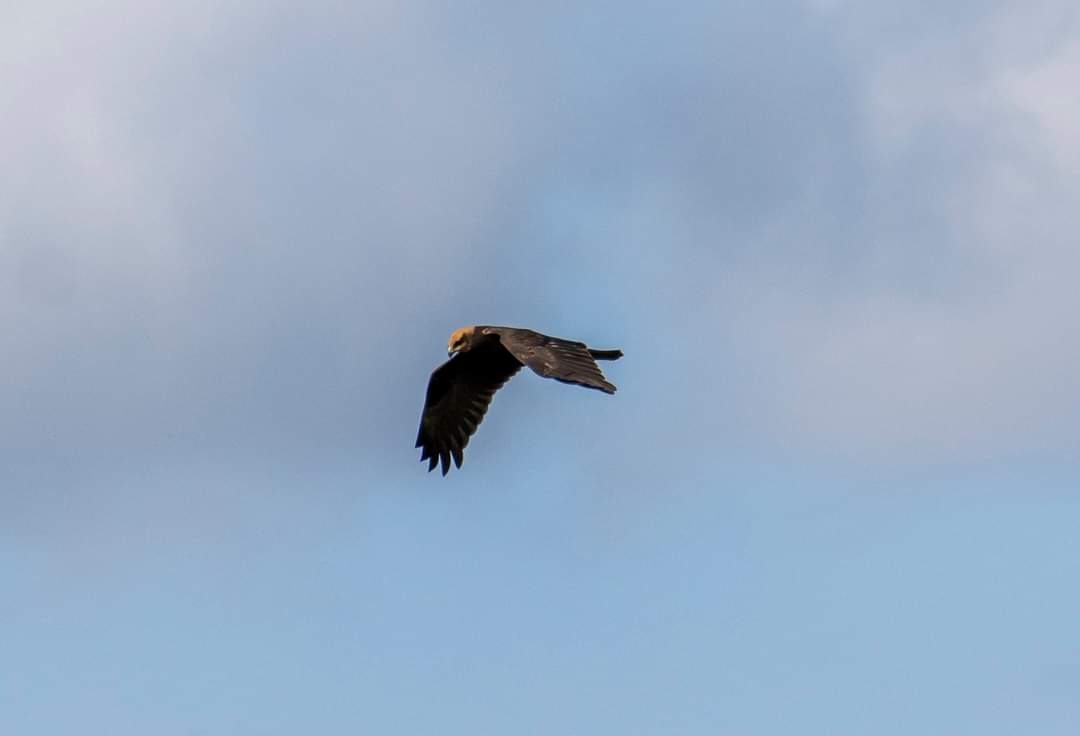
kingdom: Animalia
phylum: Chordata
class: Aves
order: Accipitriformes
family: Accipitridae
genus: Circus
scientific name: Circus aeruginosus
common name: Western marsh harrier
